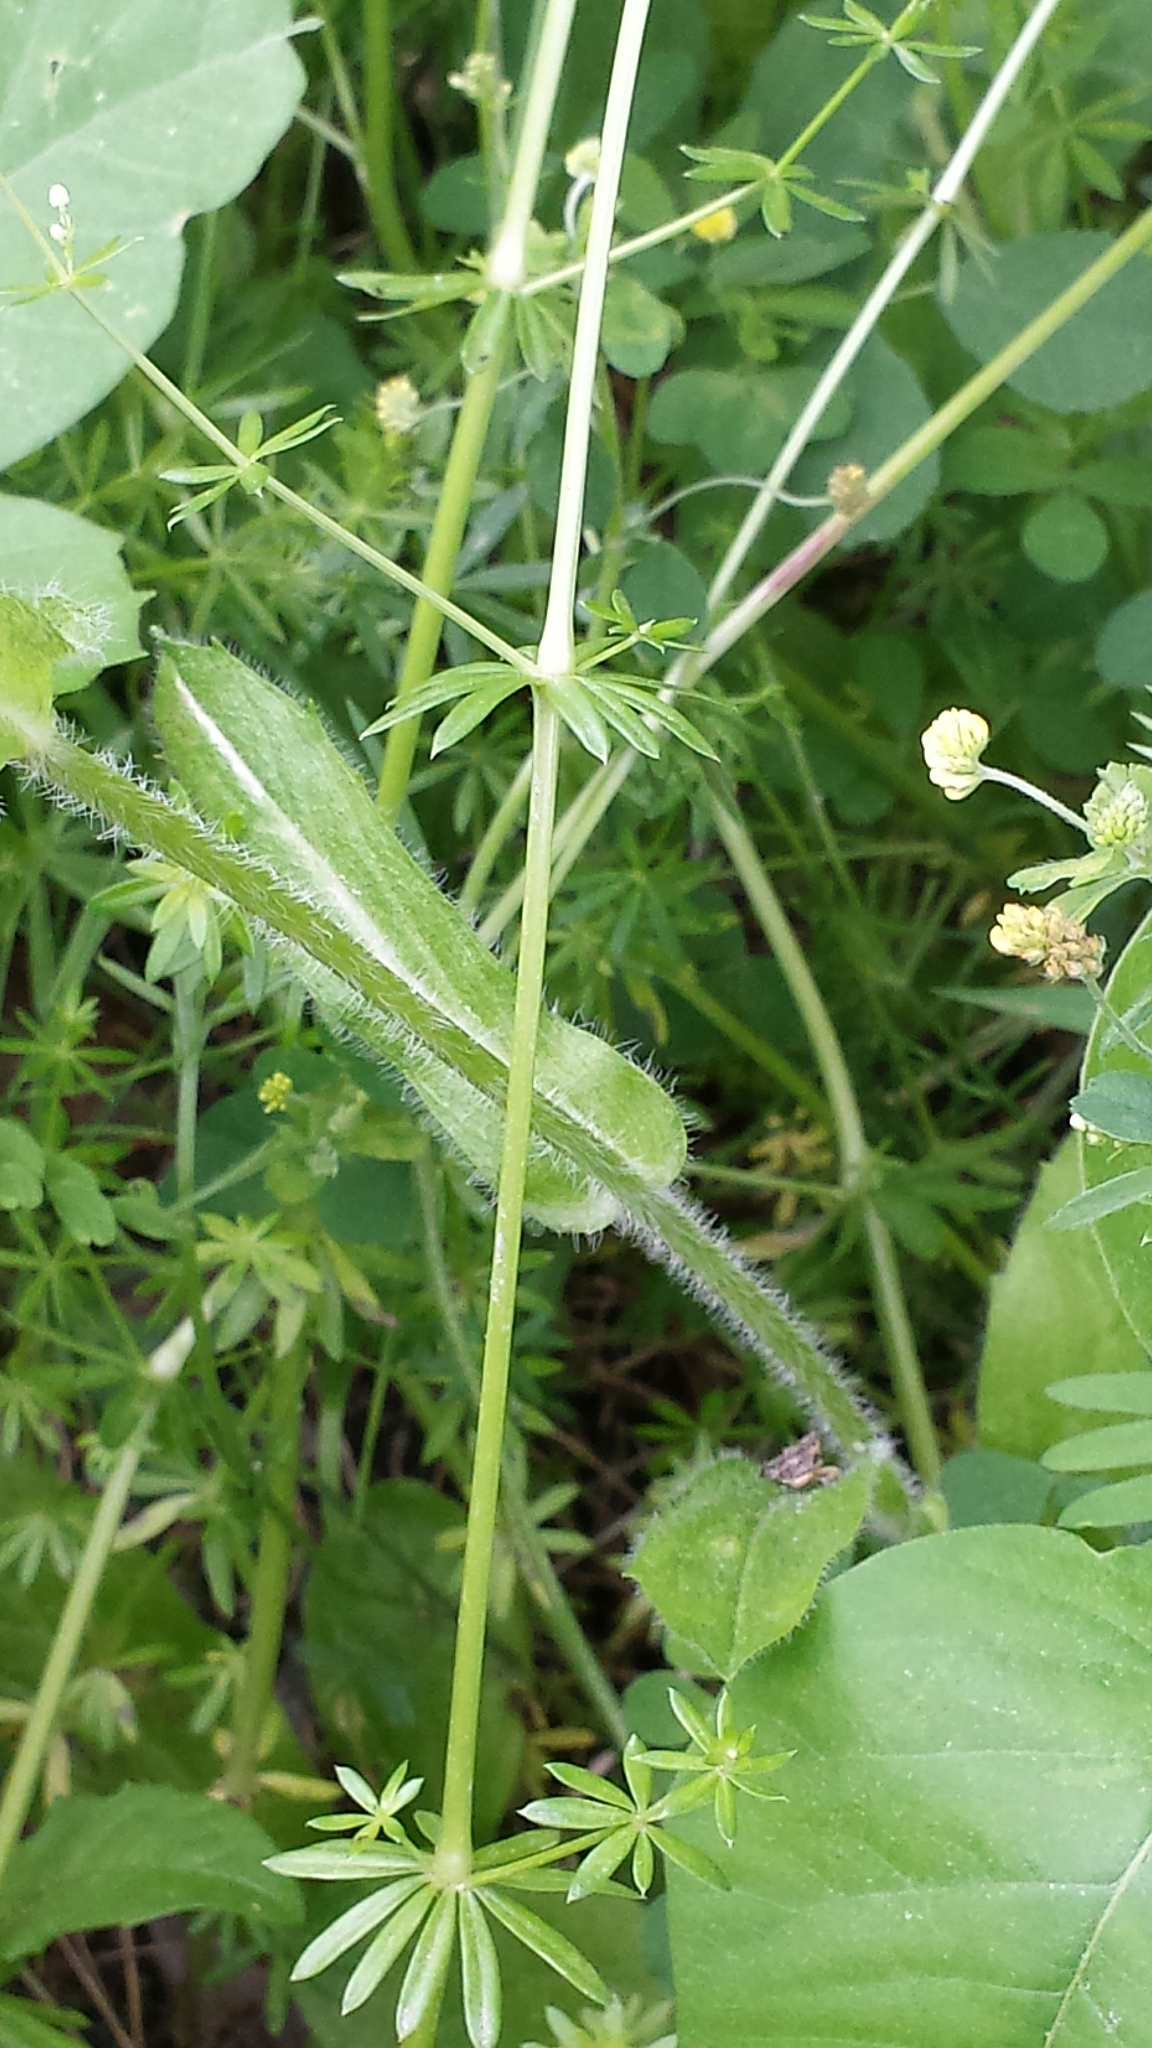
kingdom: Plantae
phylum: Tracheophyta
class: Magnoliopsida
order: Asterales
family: Asteraceae
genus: Erigeron
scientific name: Erigeron philadelphicus
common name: Robin's-plantain
